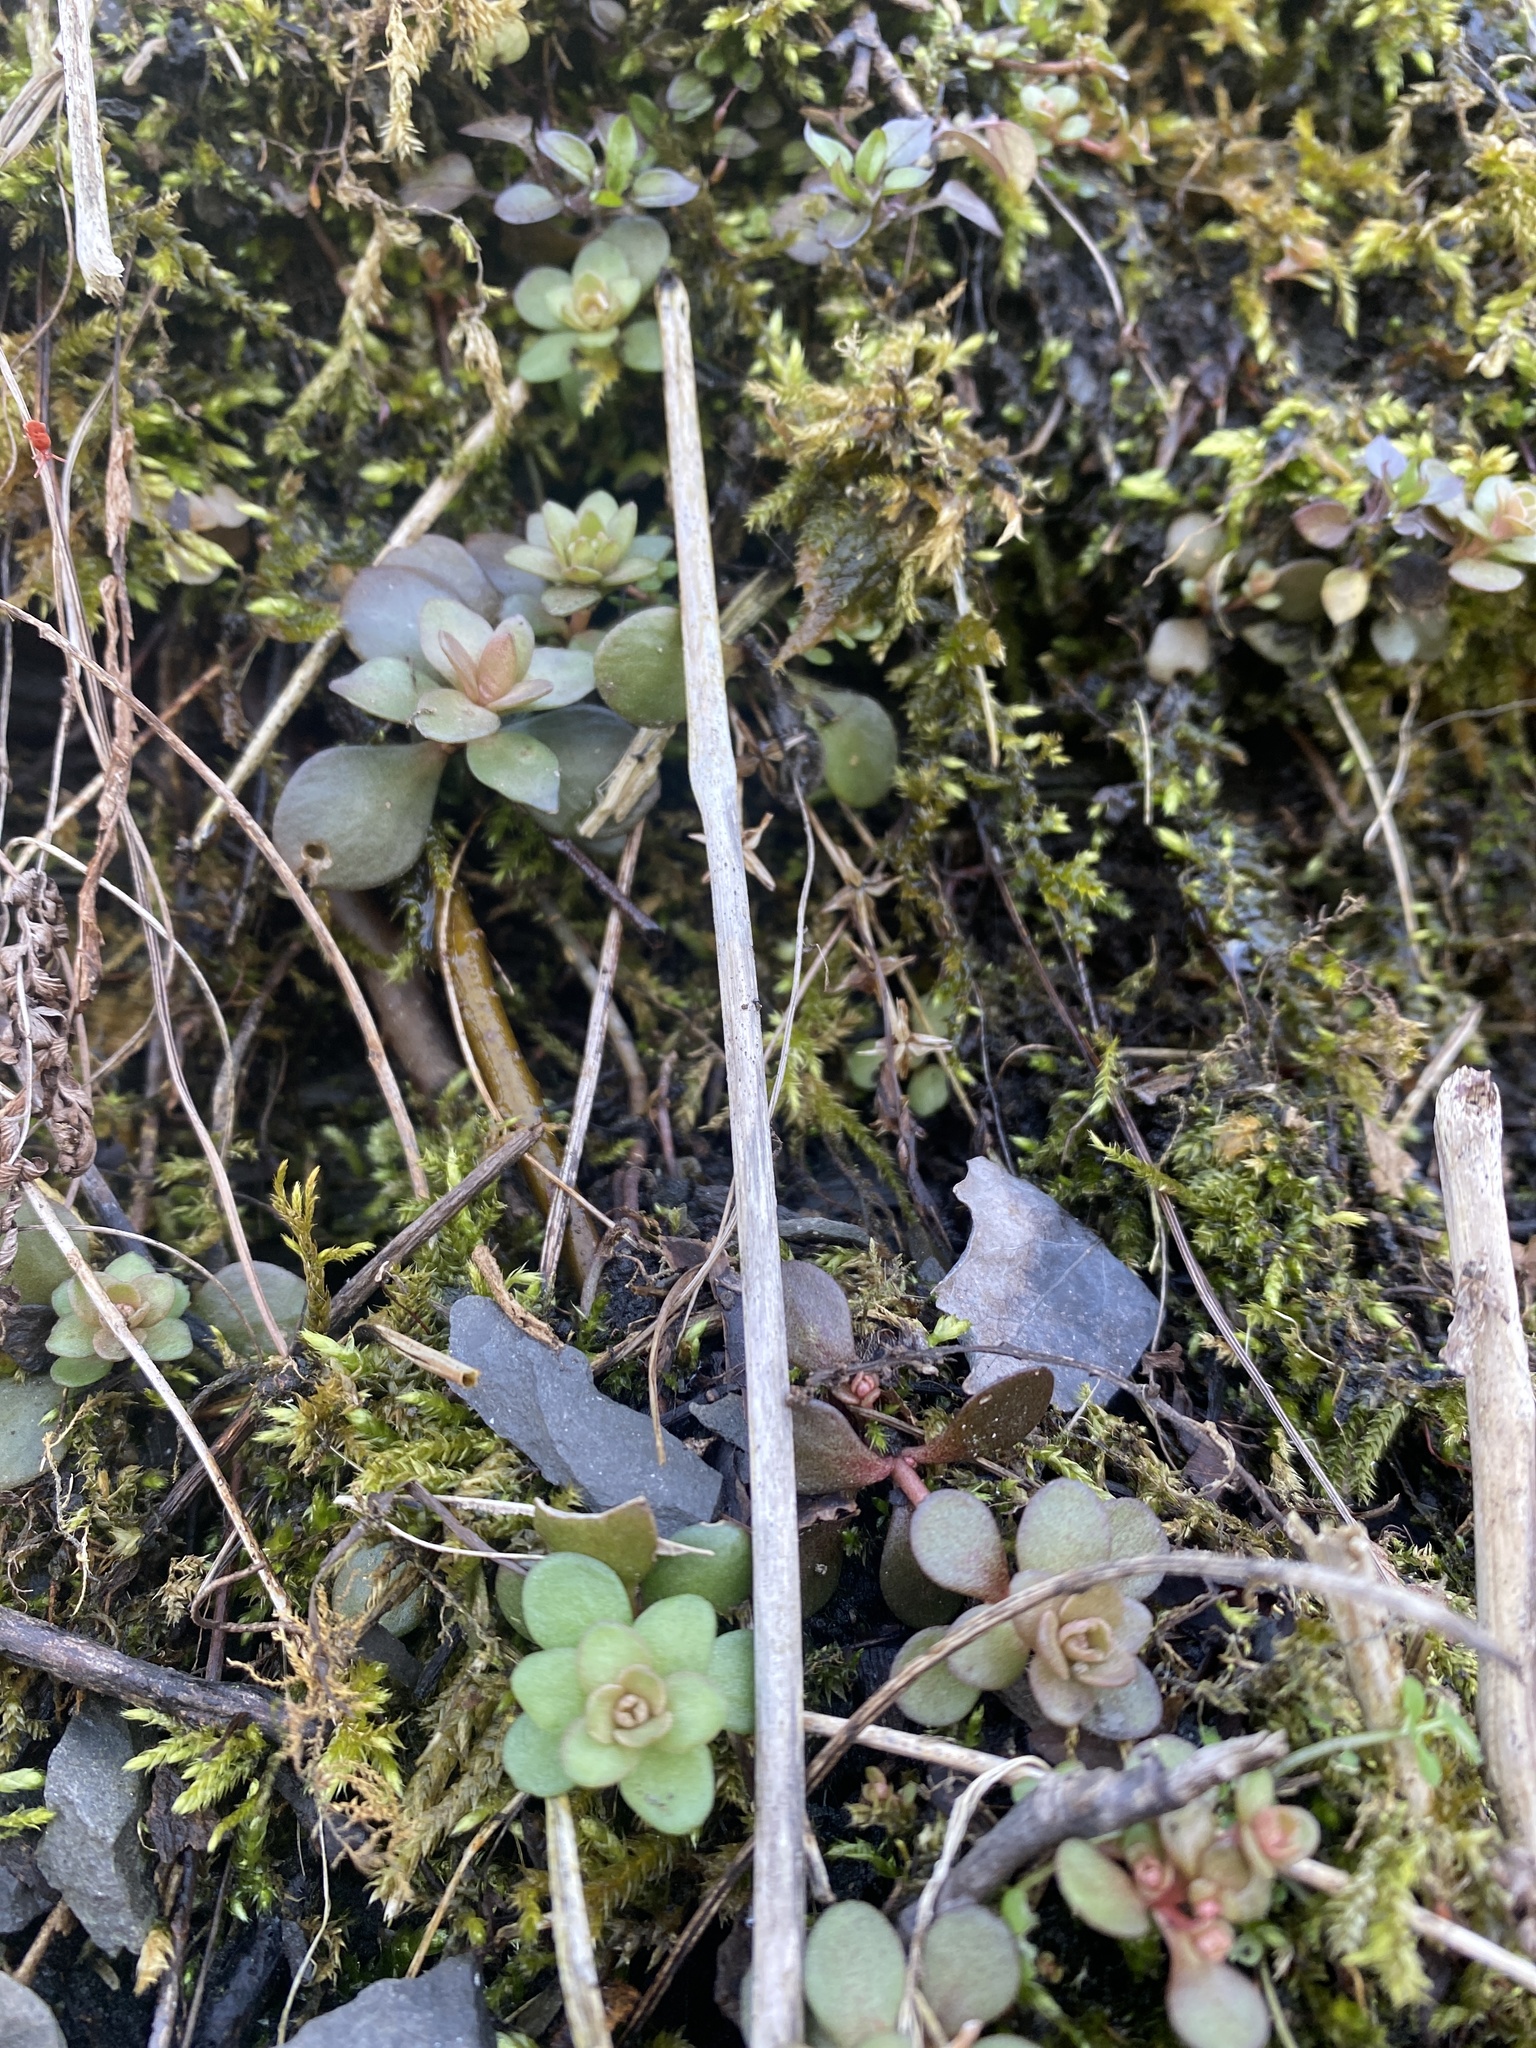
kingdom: Plantae
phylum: Tracheophyta
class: Magnoliopsida
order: Saxifragales
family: Crassulaceae
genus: Sedum
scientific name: Sedum ternatum
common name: Wild stonecrop
